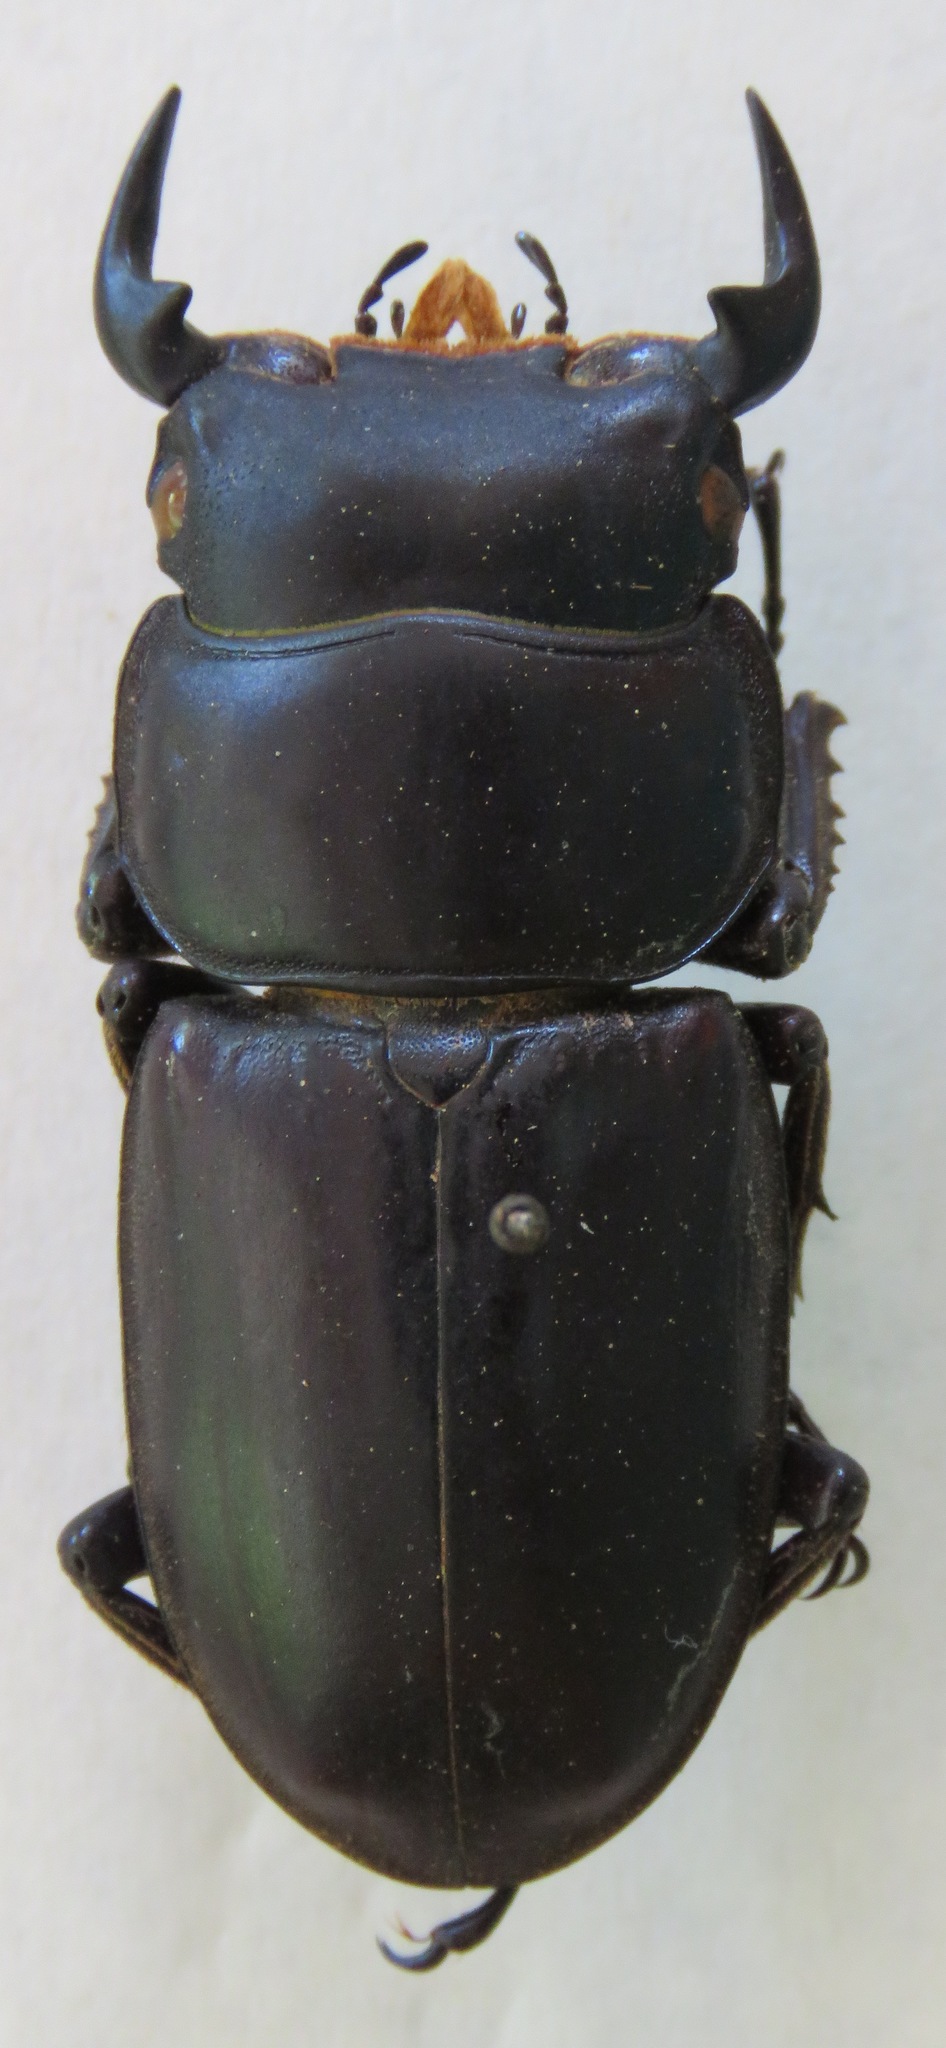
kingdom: Animalia
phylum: Arthropoda
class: Insecta
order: Coleoptera
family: Lucanidae
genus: Dorcus
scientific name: Dorcus antaeus
